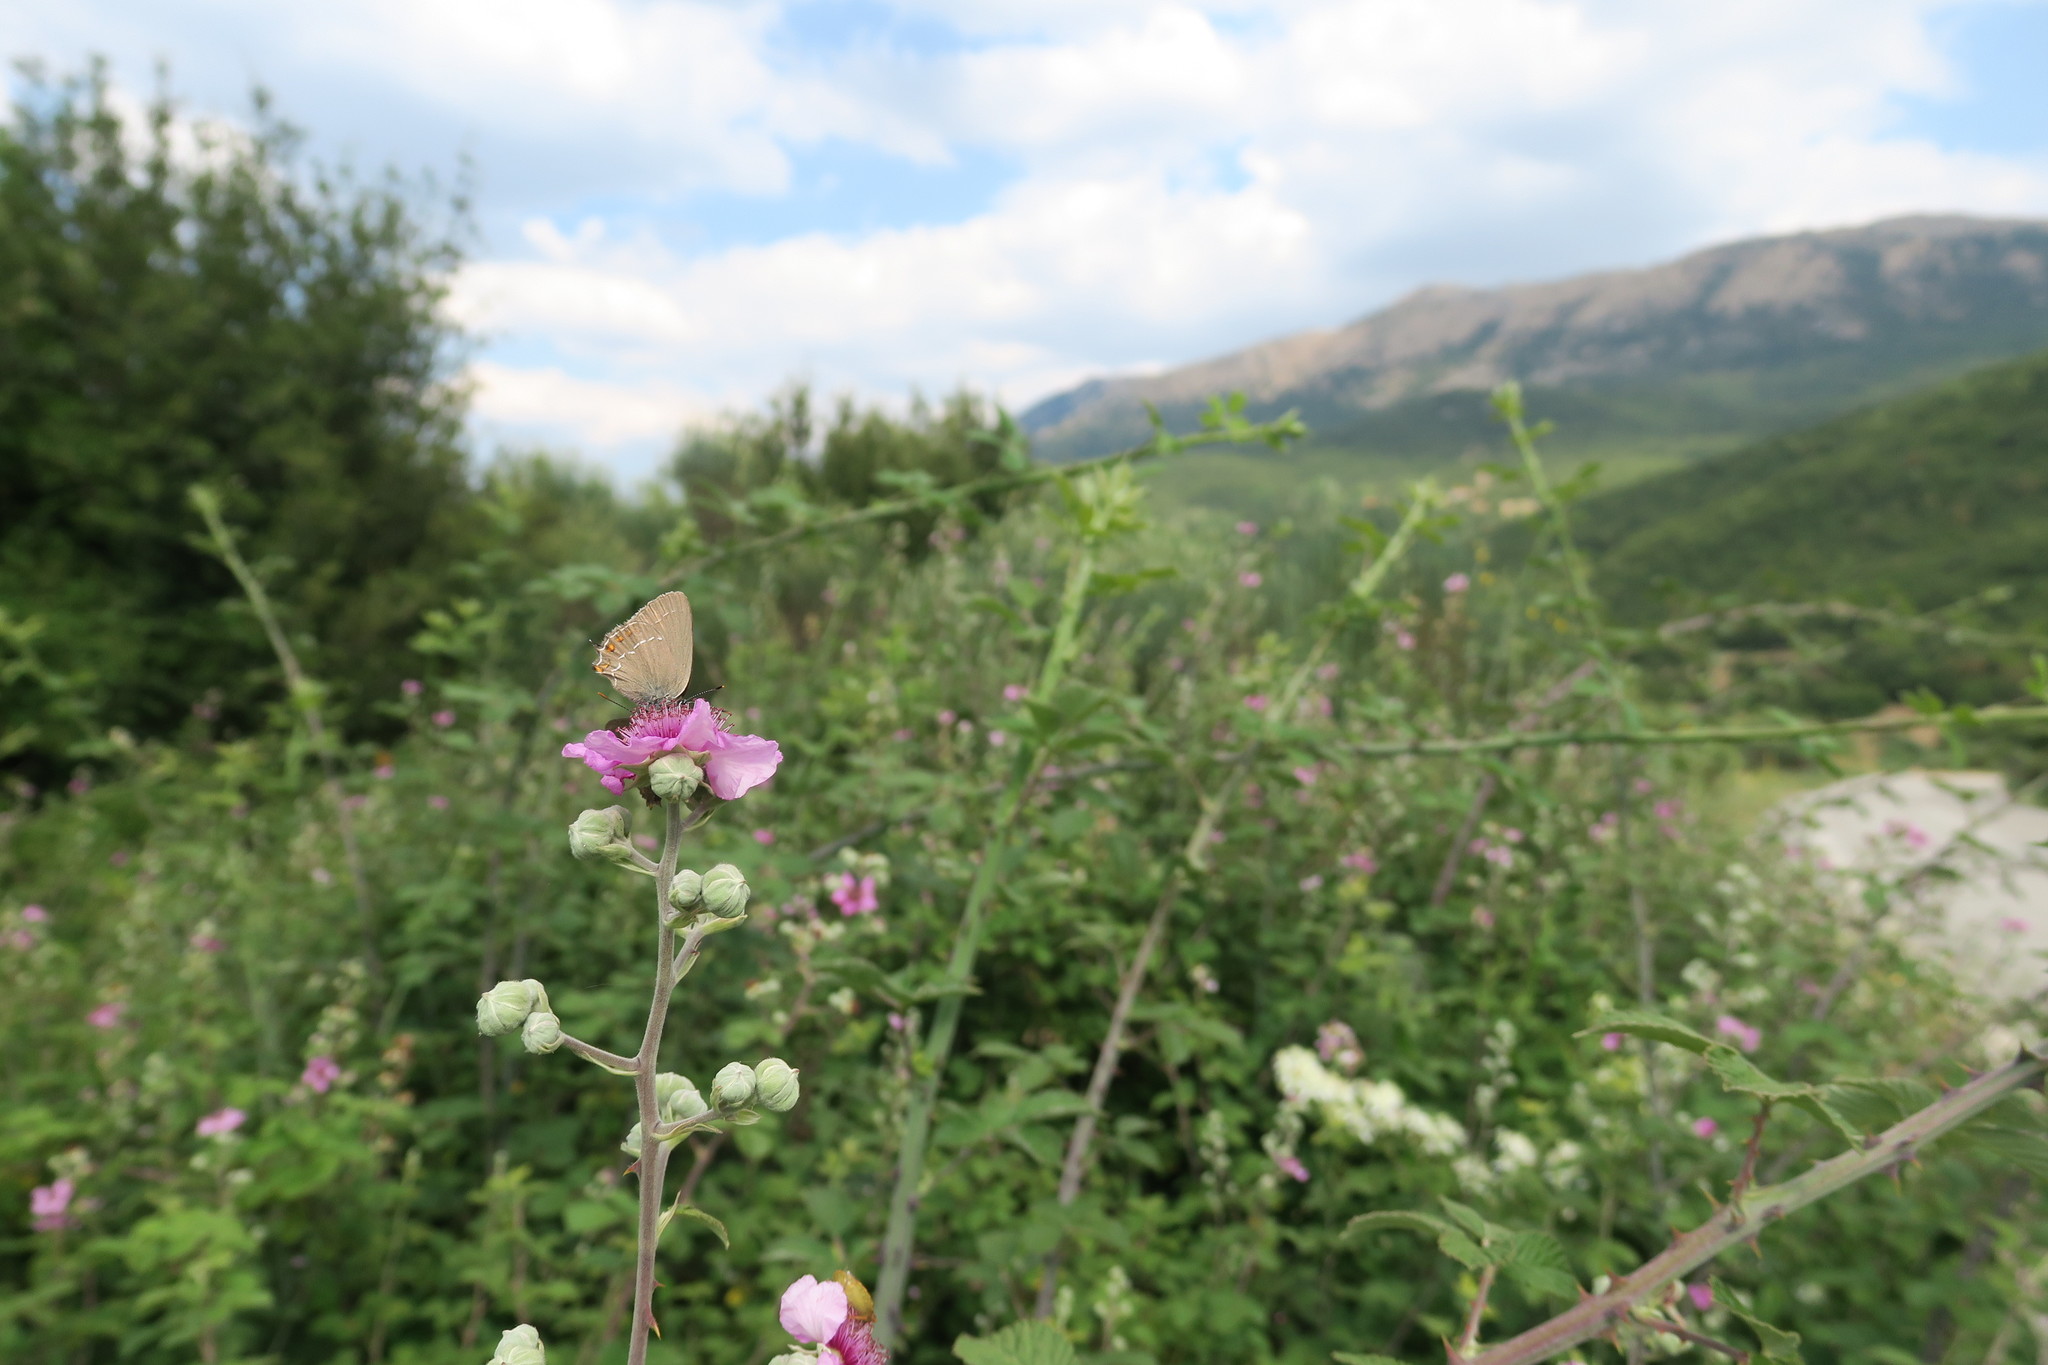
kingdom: Animalia
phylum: Arthropoda
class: Insecta
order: Lepidoptera
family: Lycaenidae
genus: Nordmannia
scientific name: Nordmannia ilicis
